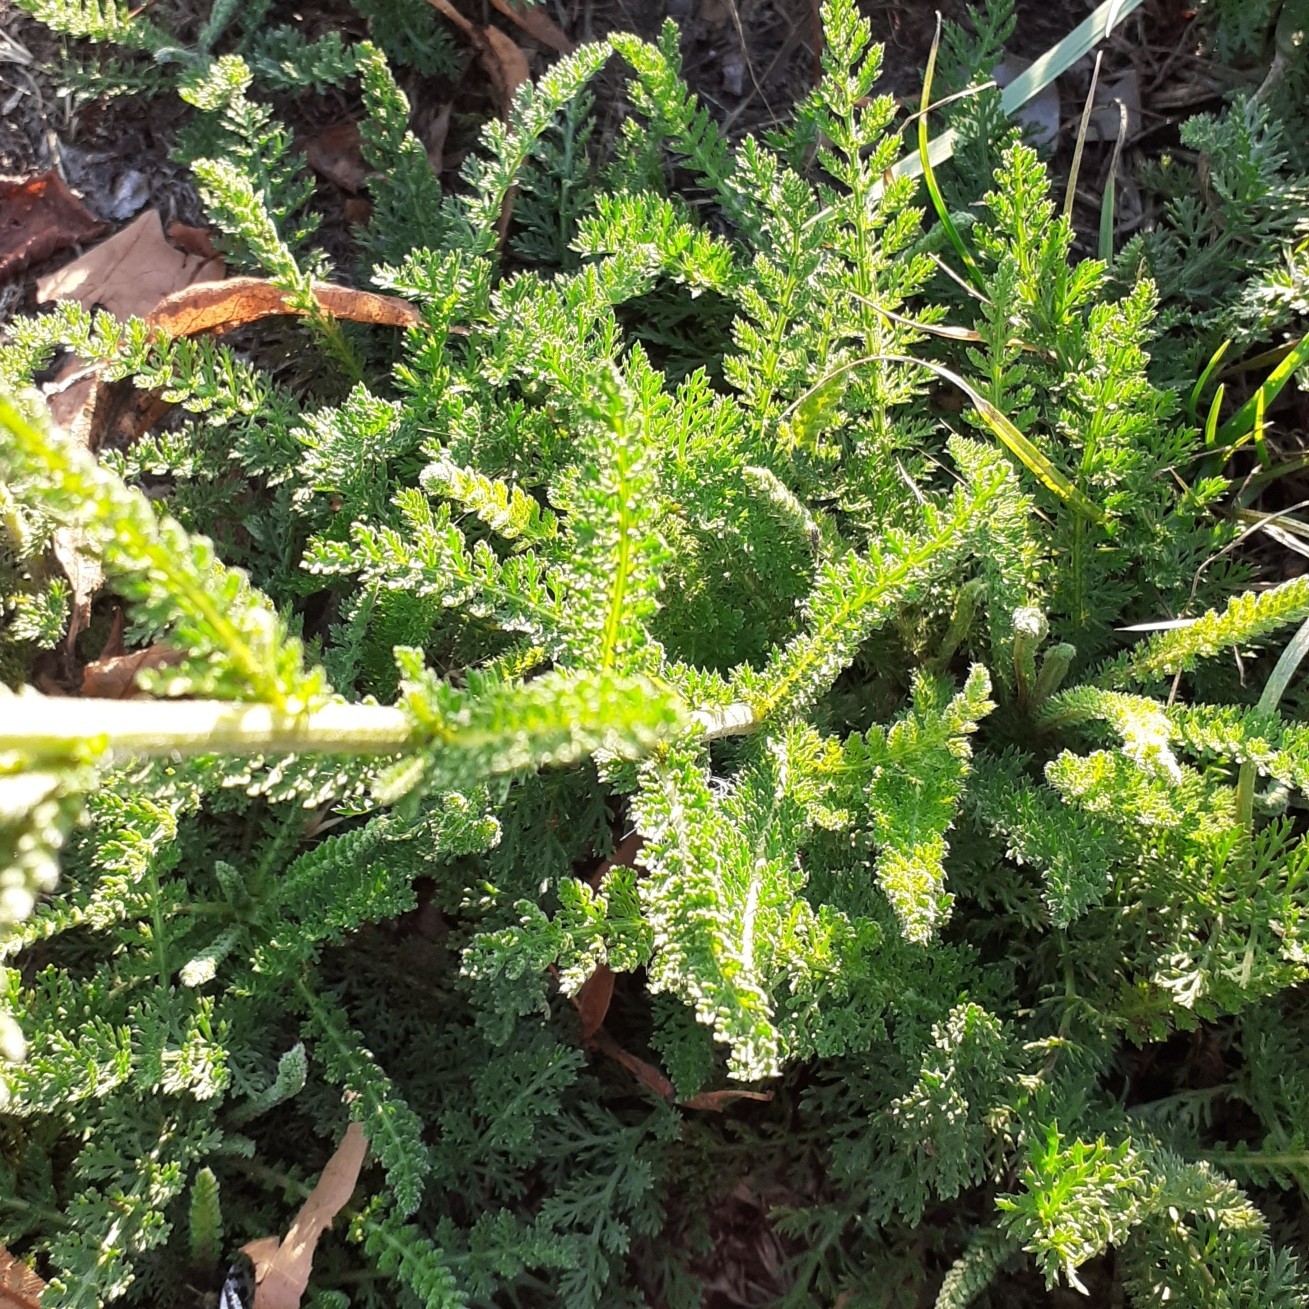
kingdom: Plantae
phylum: Tracheophyta
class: Magnoliopsida
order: Asterales
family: Asteraceae
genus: Achillea
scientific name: Achillea millefolium
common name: Yarrow
